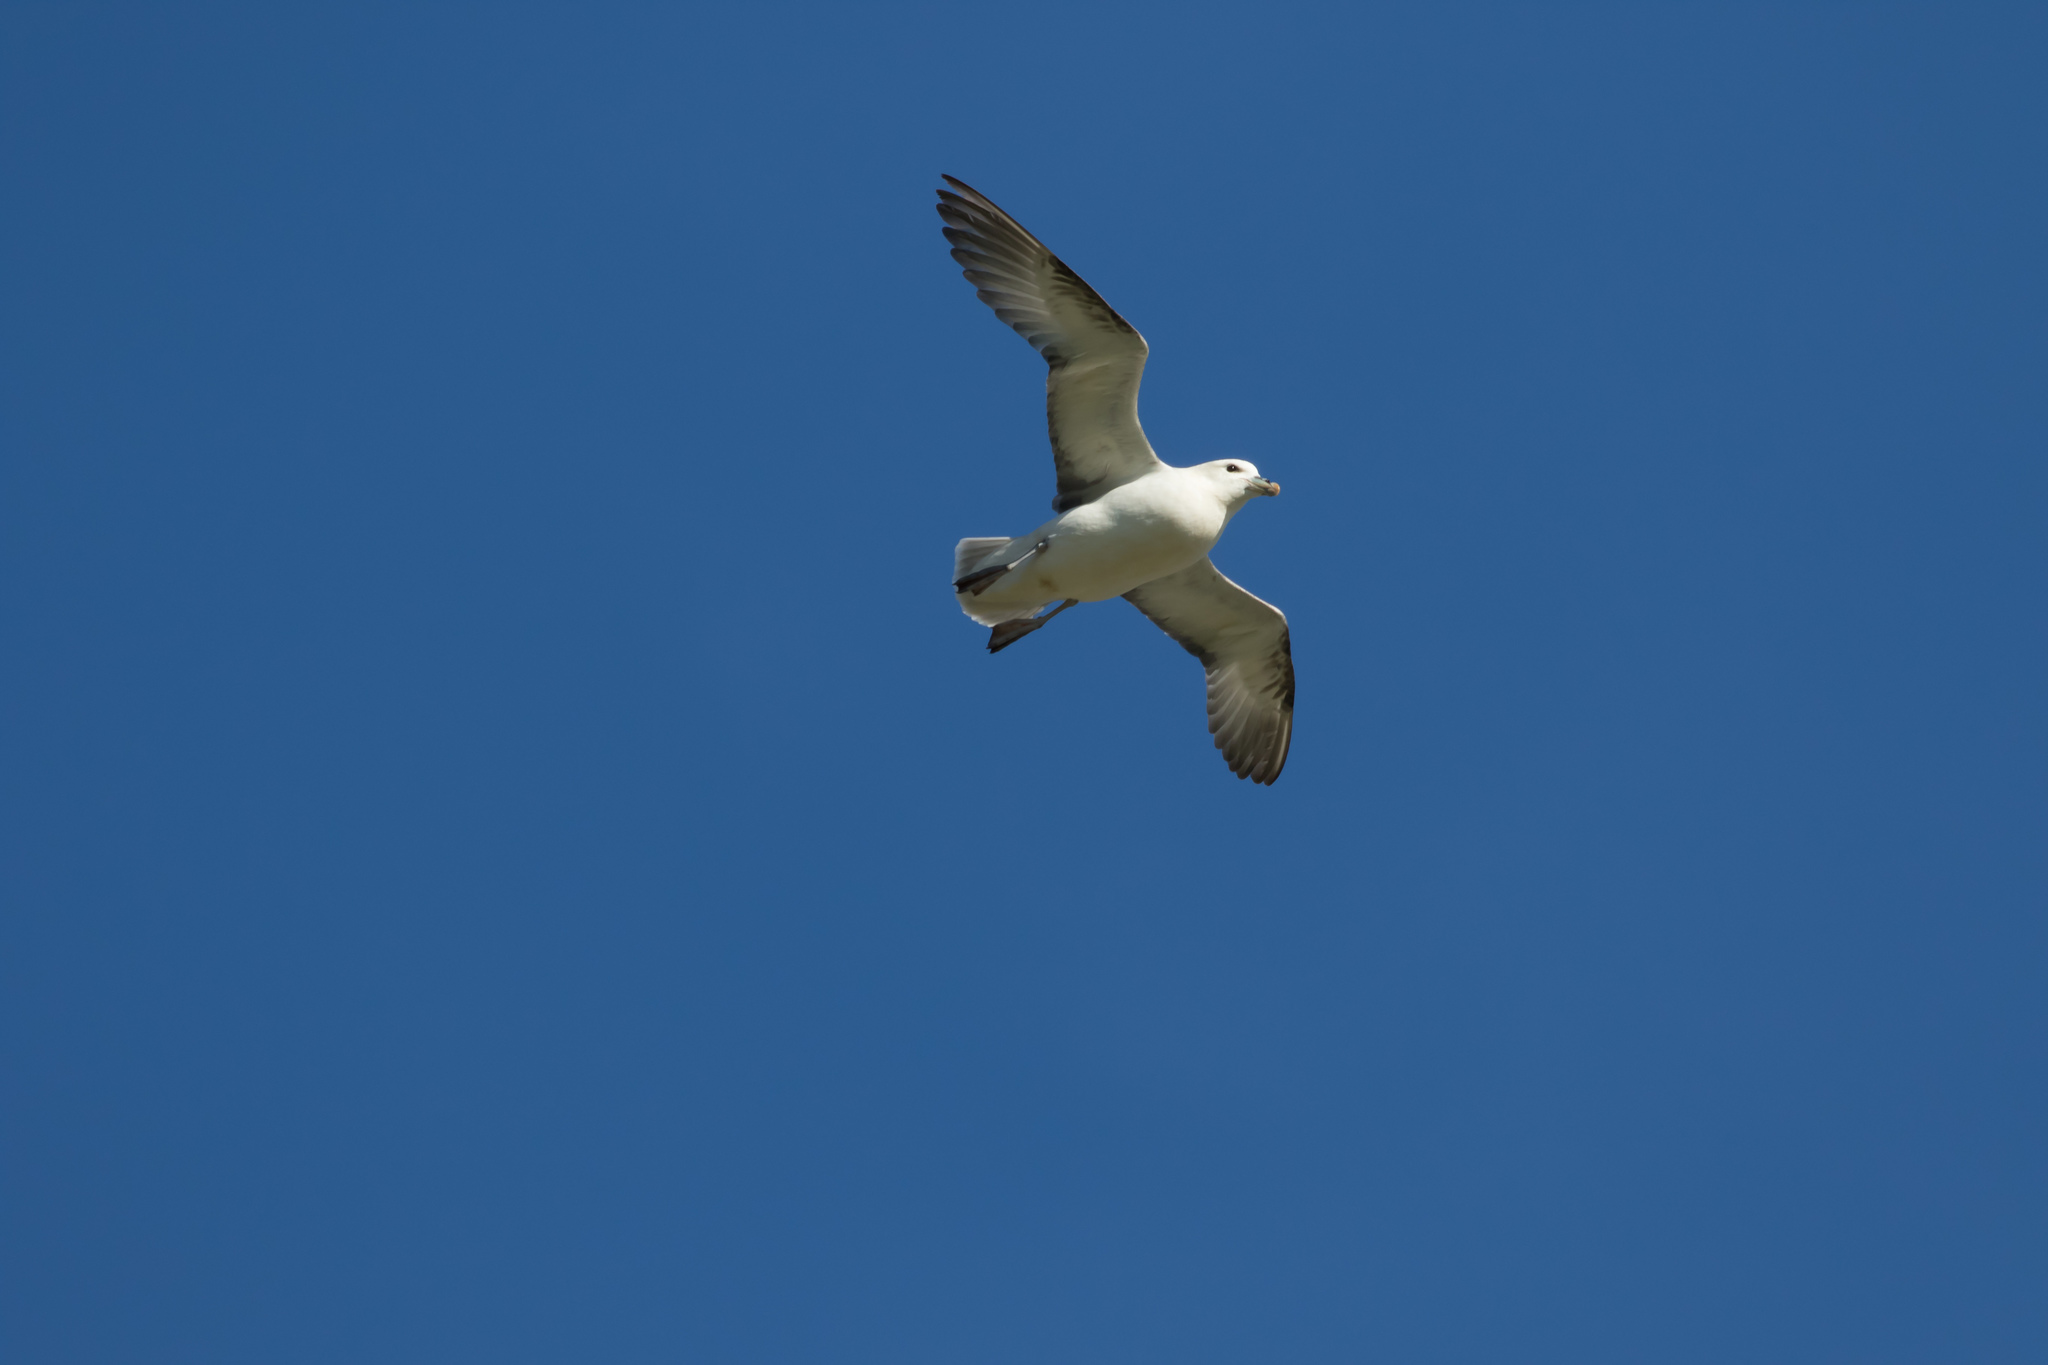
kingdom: Animalia
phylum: Chordata
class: Aves
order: Procellariiformes
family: Procellariidae
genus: Fulmarus
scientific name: Fulmarus glacialis
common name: Northern fulmar
